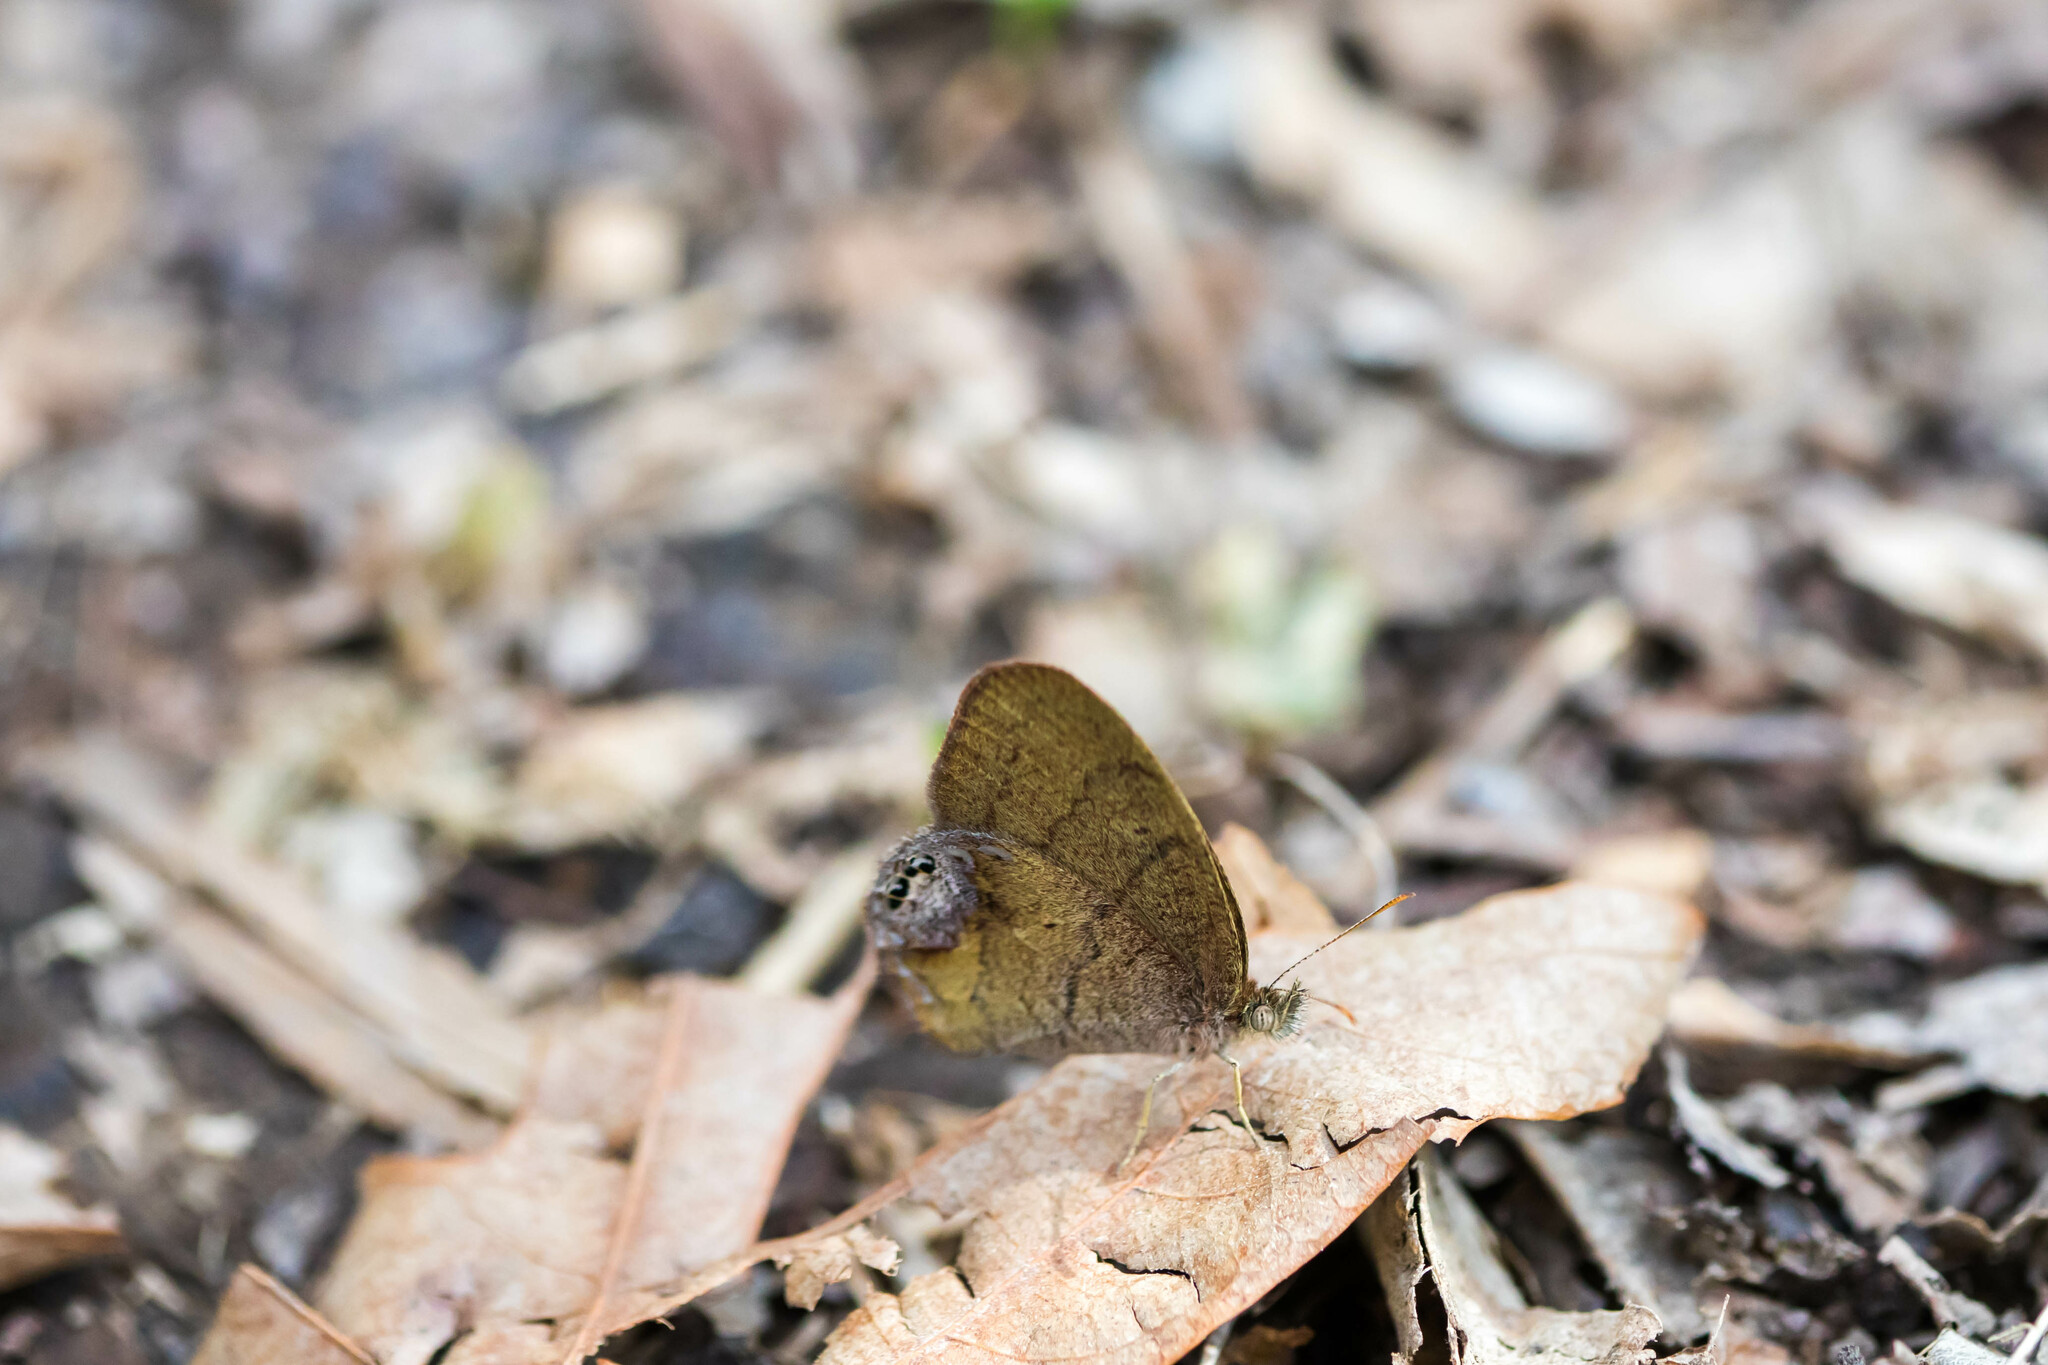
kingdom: Animalia
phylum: Arthropoda
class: Insecta
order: Lepidoptera
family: Nymphalidae
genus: Euptychia
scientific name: Euptychia cornelius
